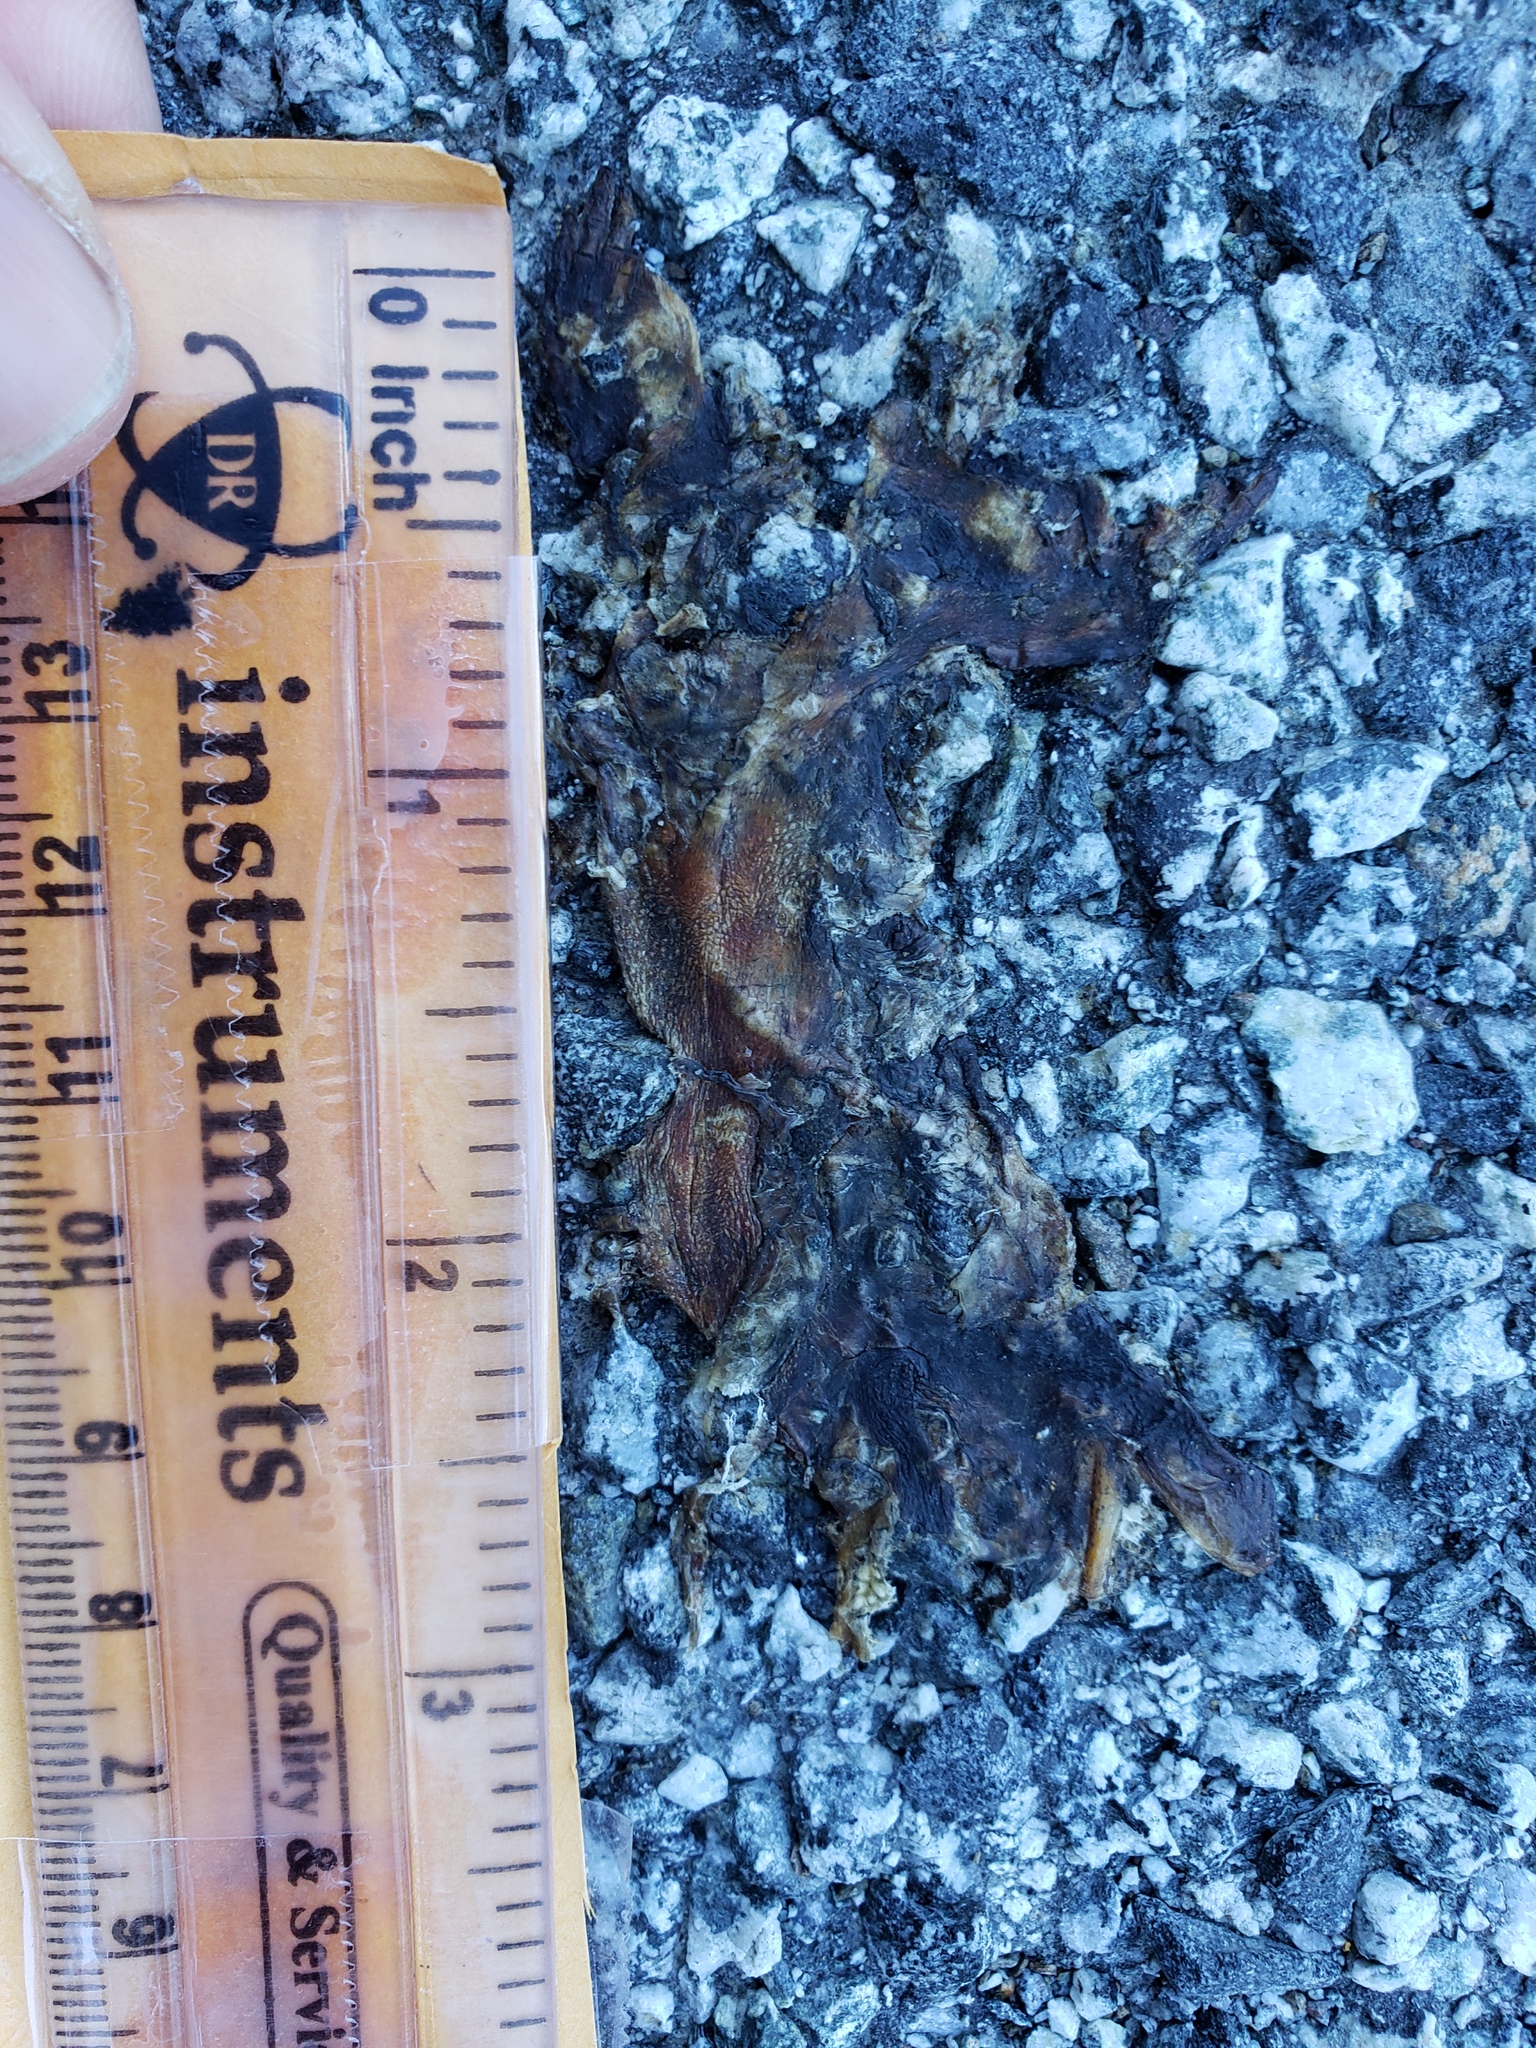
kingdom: Animalia
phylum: Chordata
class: Amphibia
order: Caudata
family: Salamandridae
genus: Taricha
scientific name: Taricha
